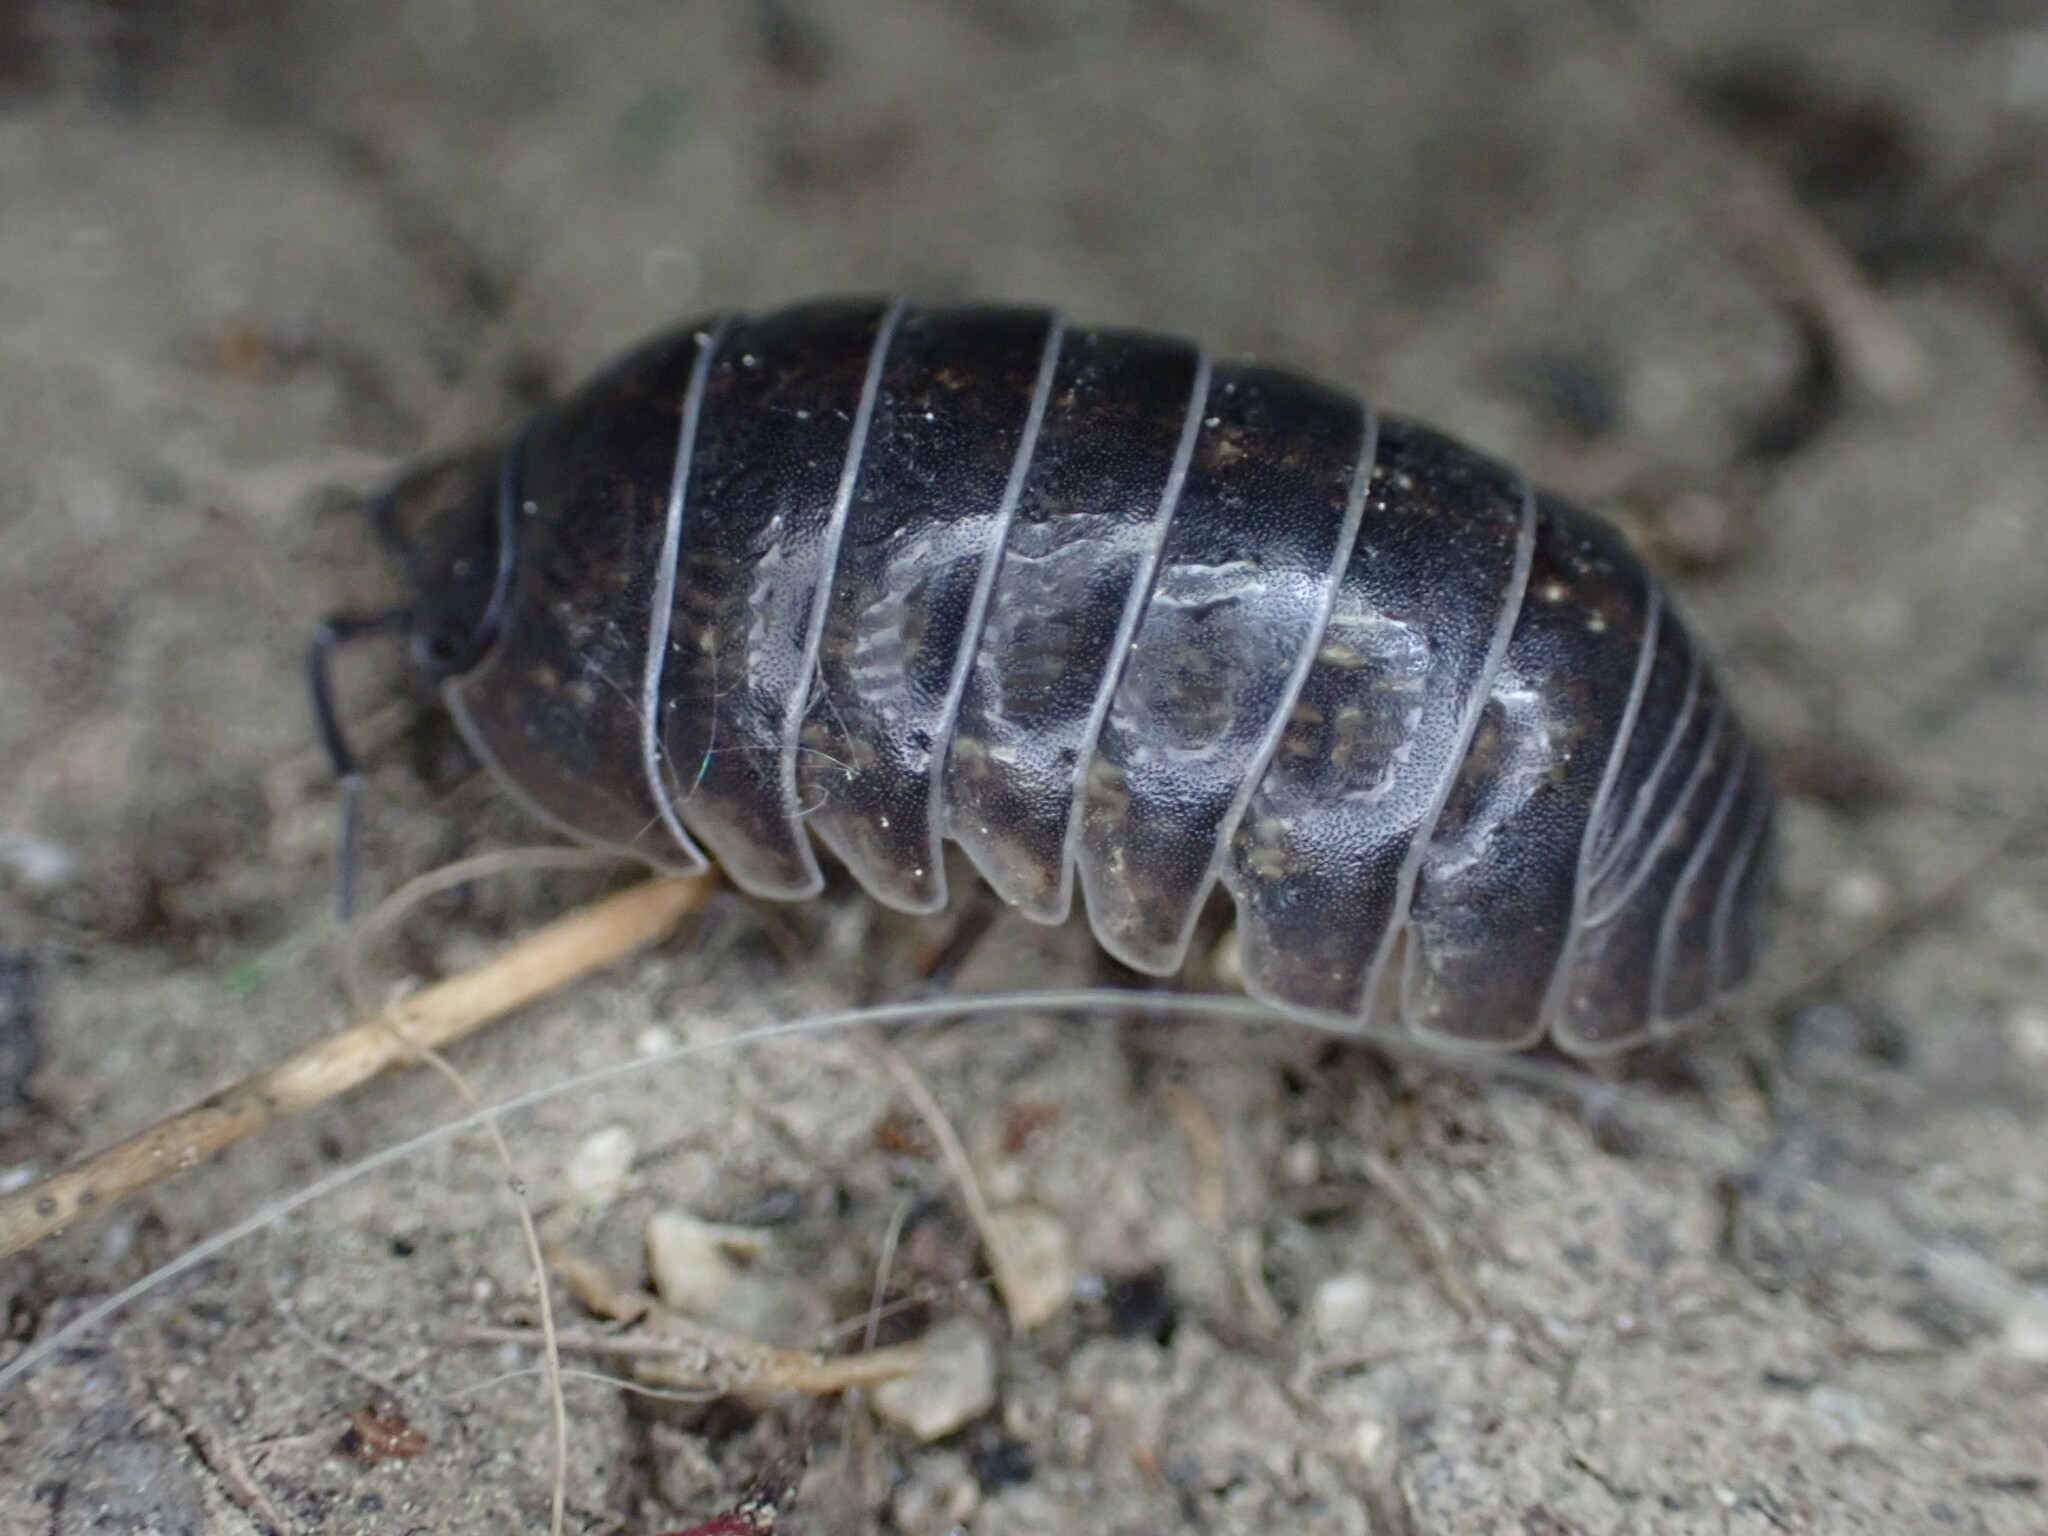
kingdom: Animalia
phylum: Arthropoda
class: Malacostraca
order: Isopoda
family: Armadillidiidae
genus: Armadillidium
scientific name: Armadillidium vulgare
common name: Common pill woodlouse
